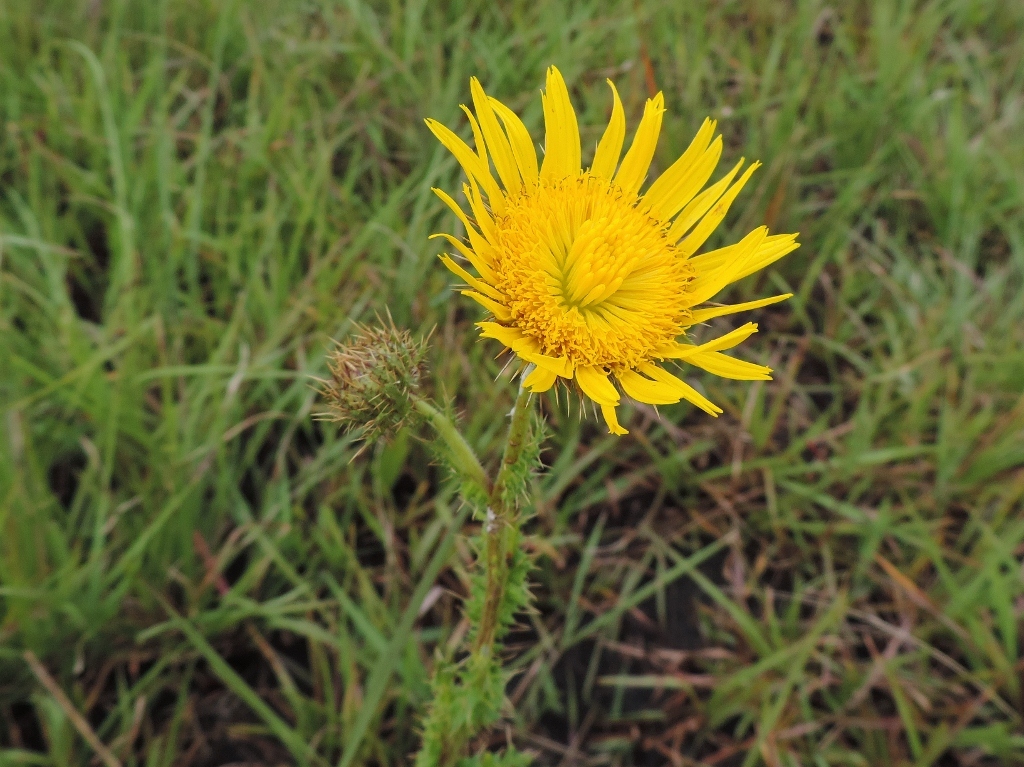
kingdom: Plantae
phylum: Tracheophyta
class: Magnoliopsida
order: Asterales
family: Asteraceae
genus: Berkheya
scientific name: Berkheya radula
